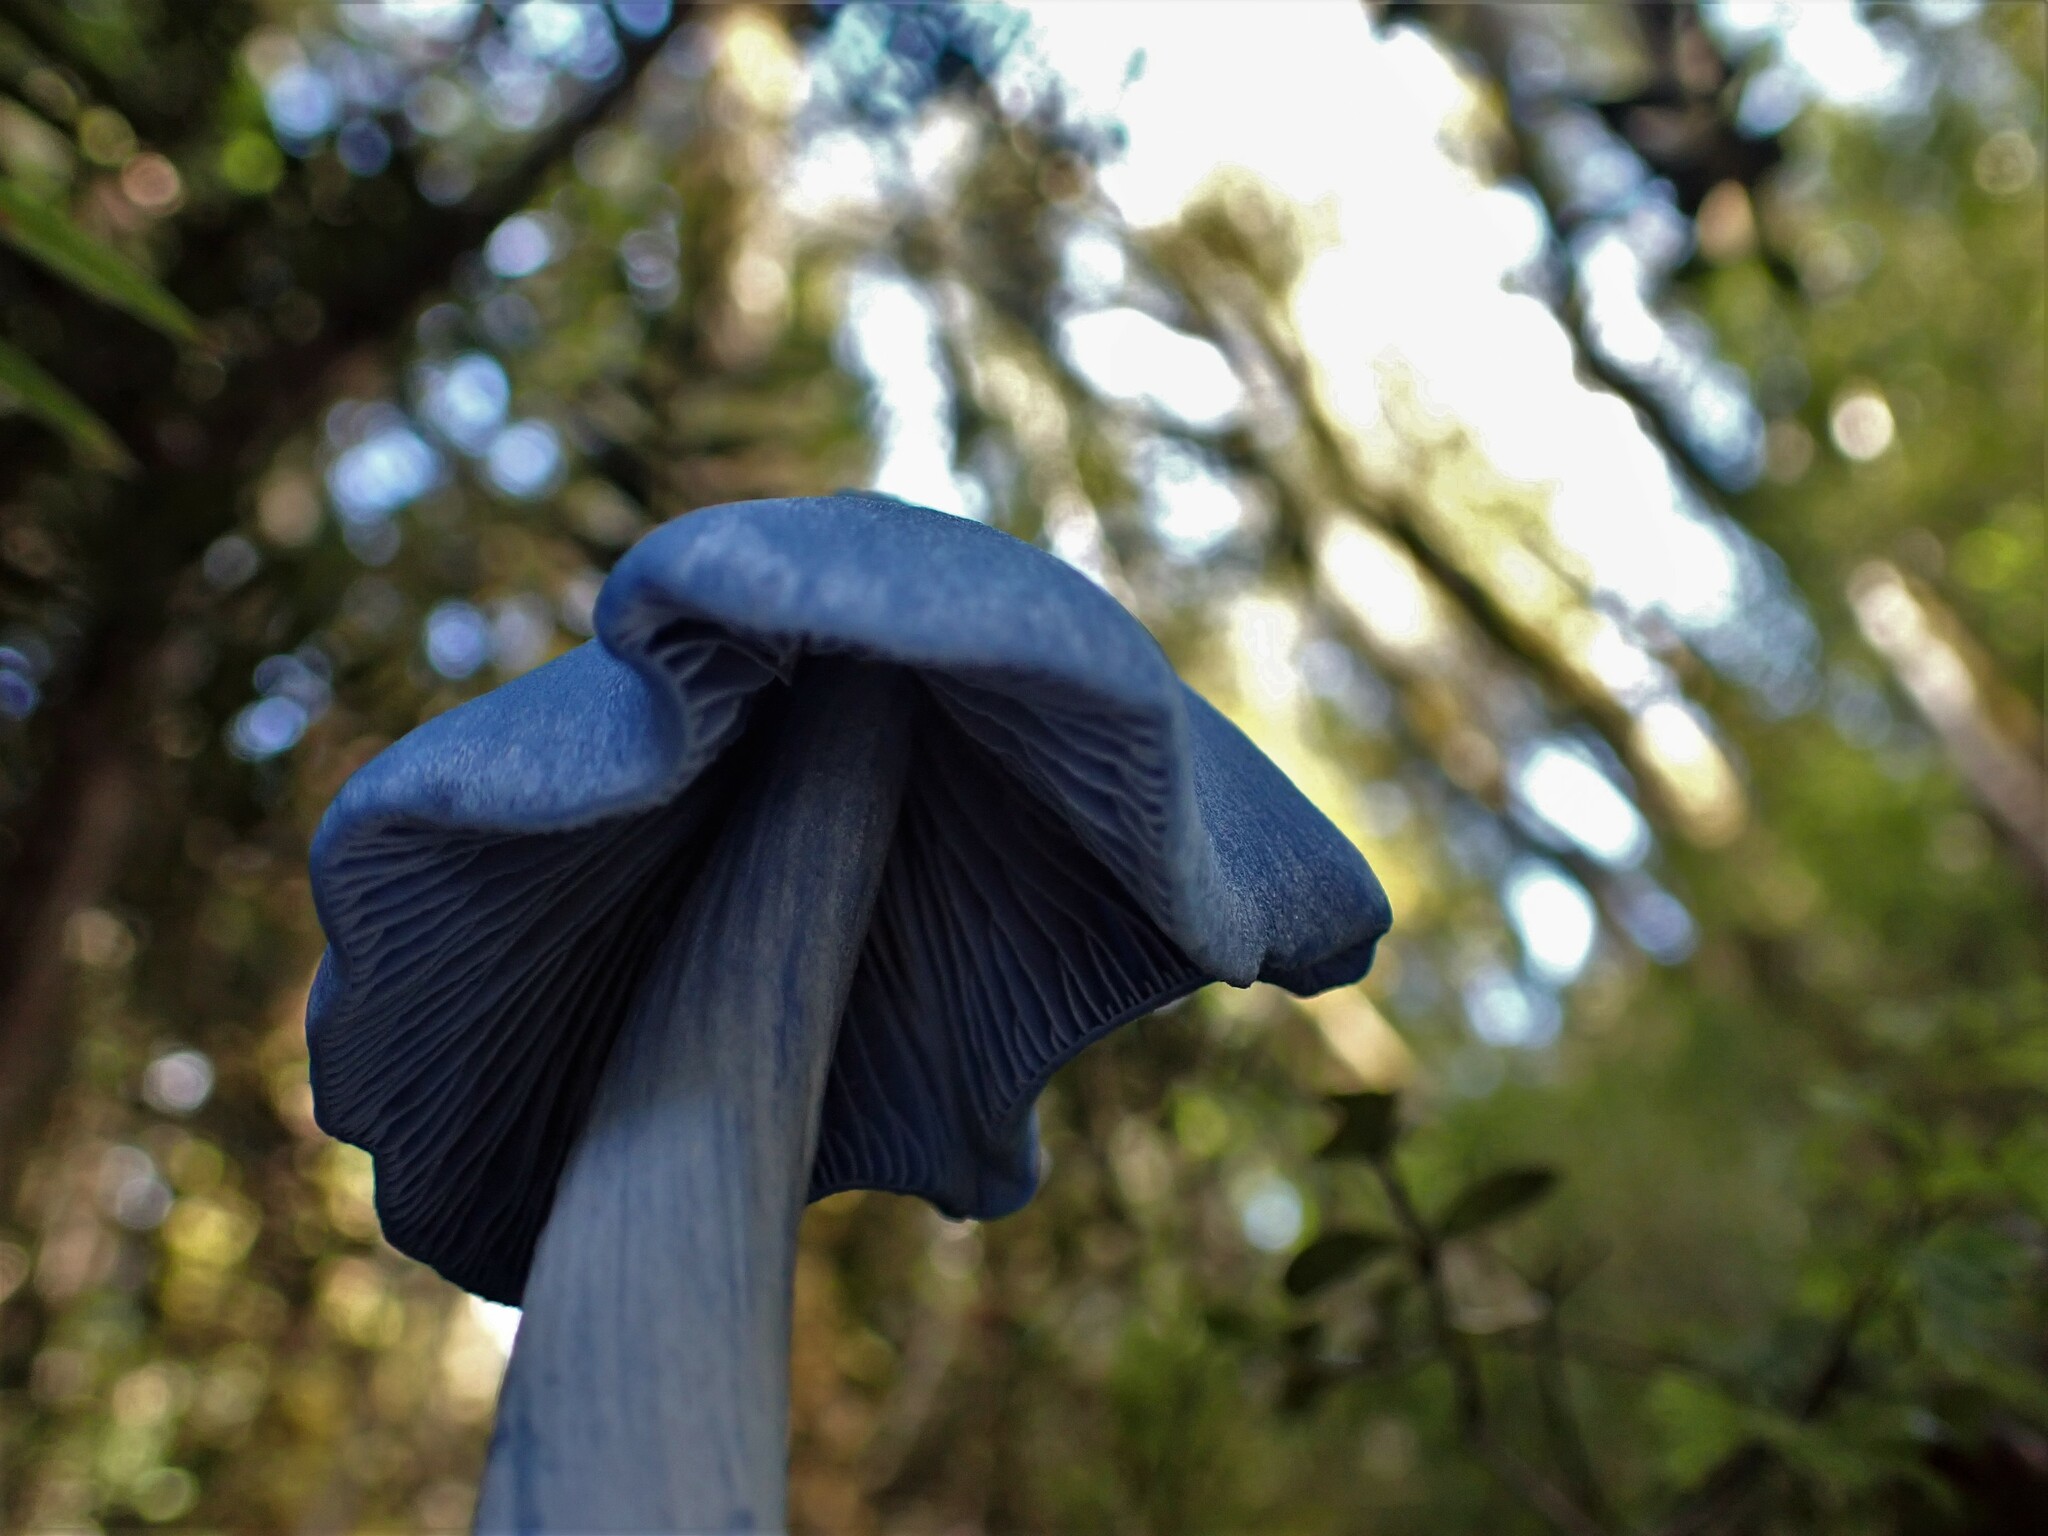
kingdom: Fungi
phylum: Basidiomycota
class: Agaricomycetes
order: Agaricales
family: Entolomataceae
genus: Entoloma
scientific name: Entoloma hochstetteri
